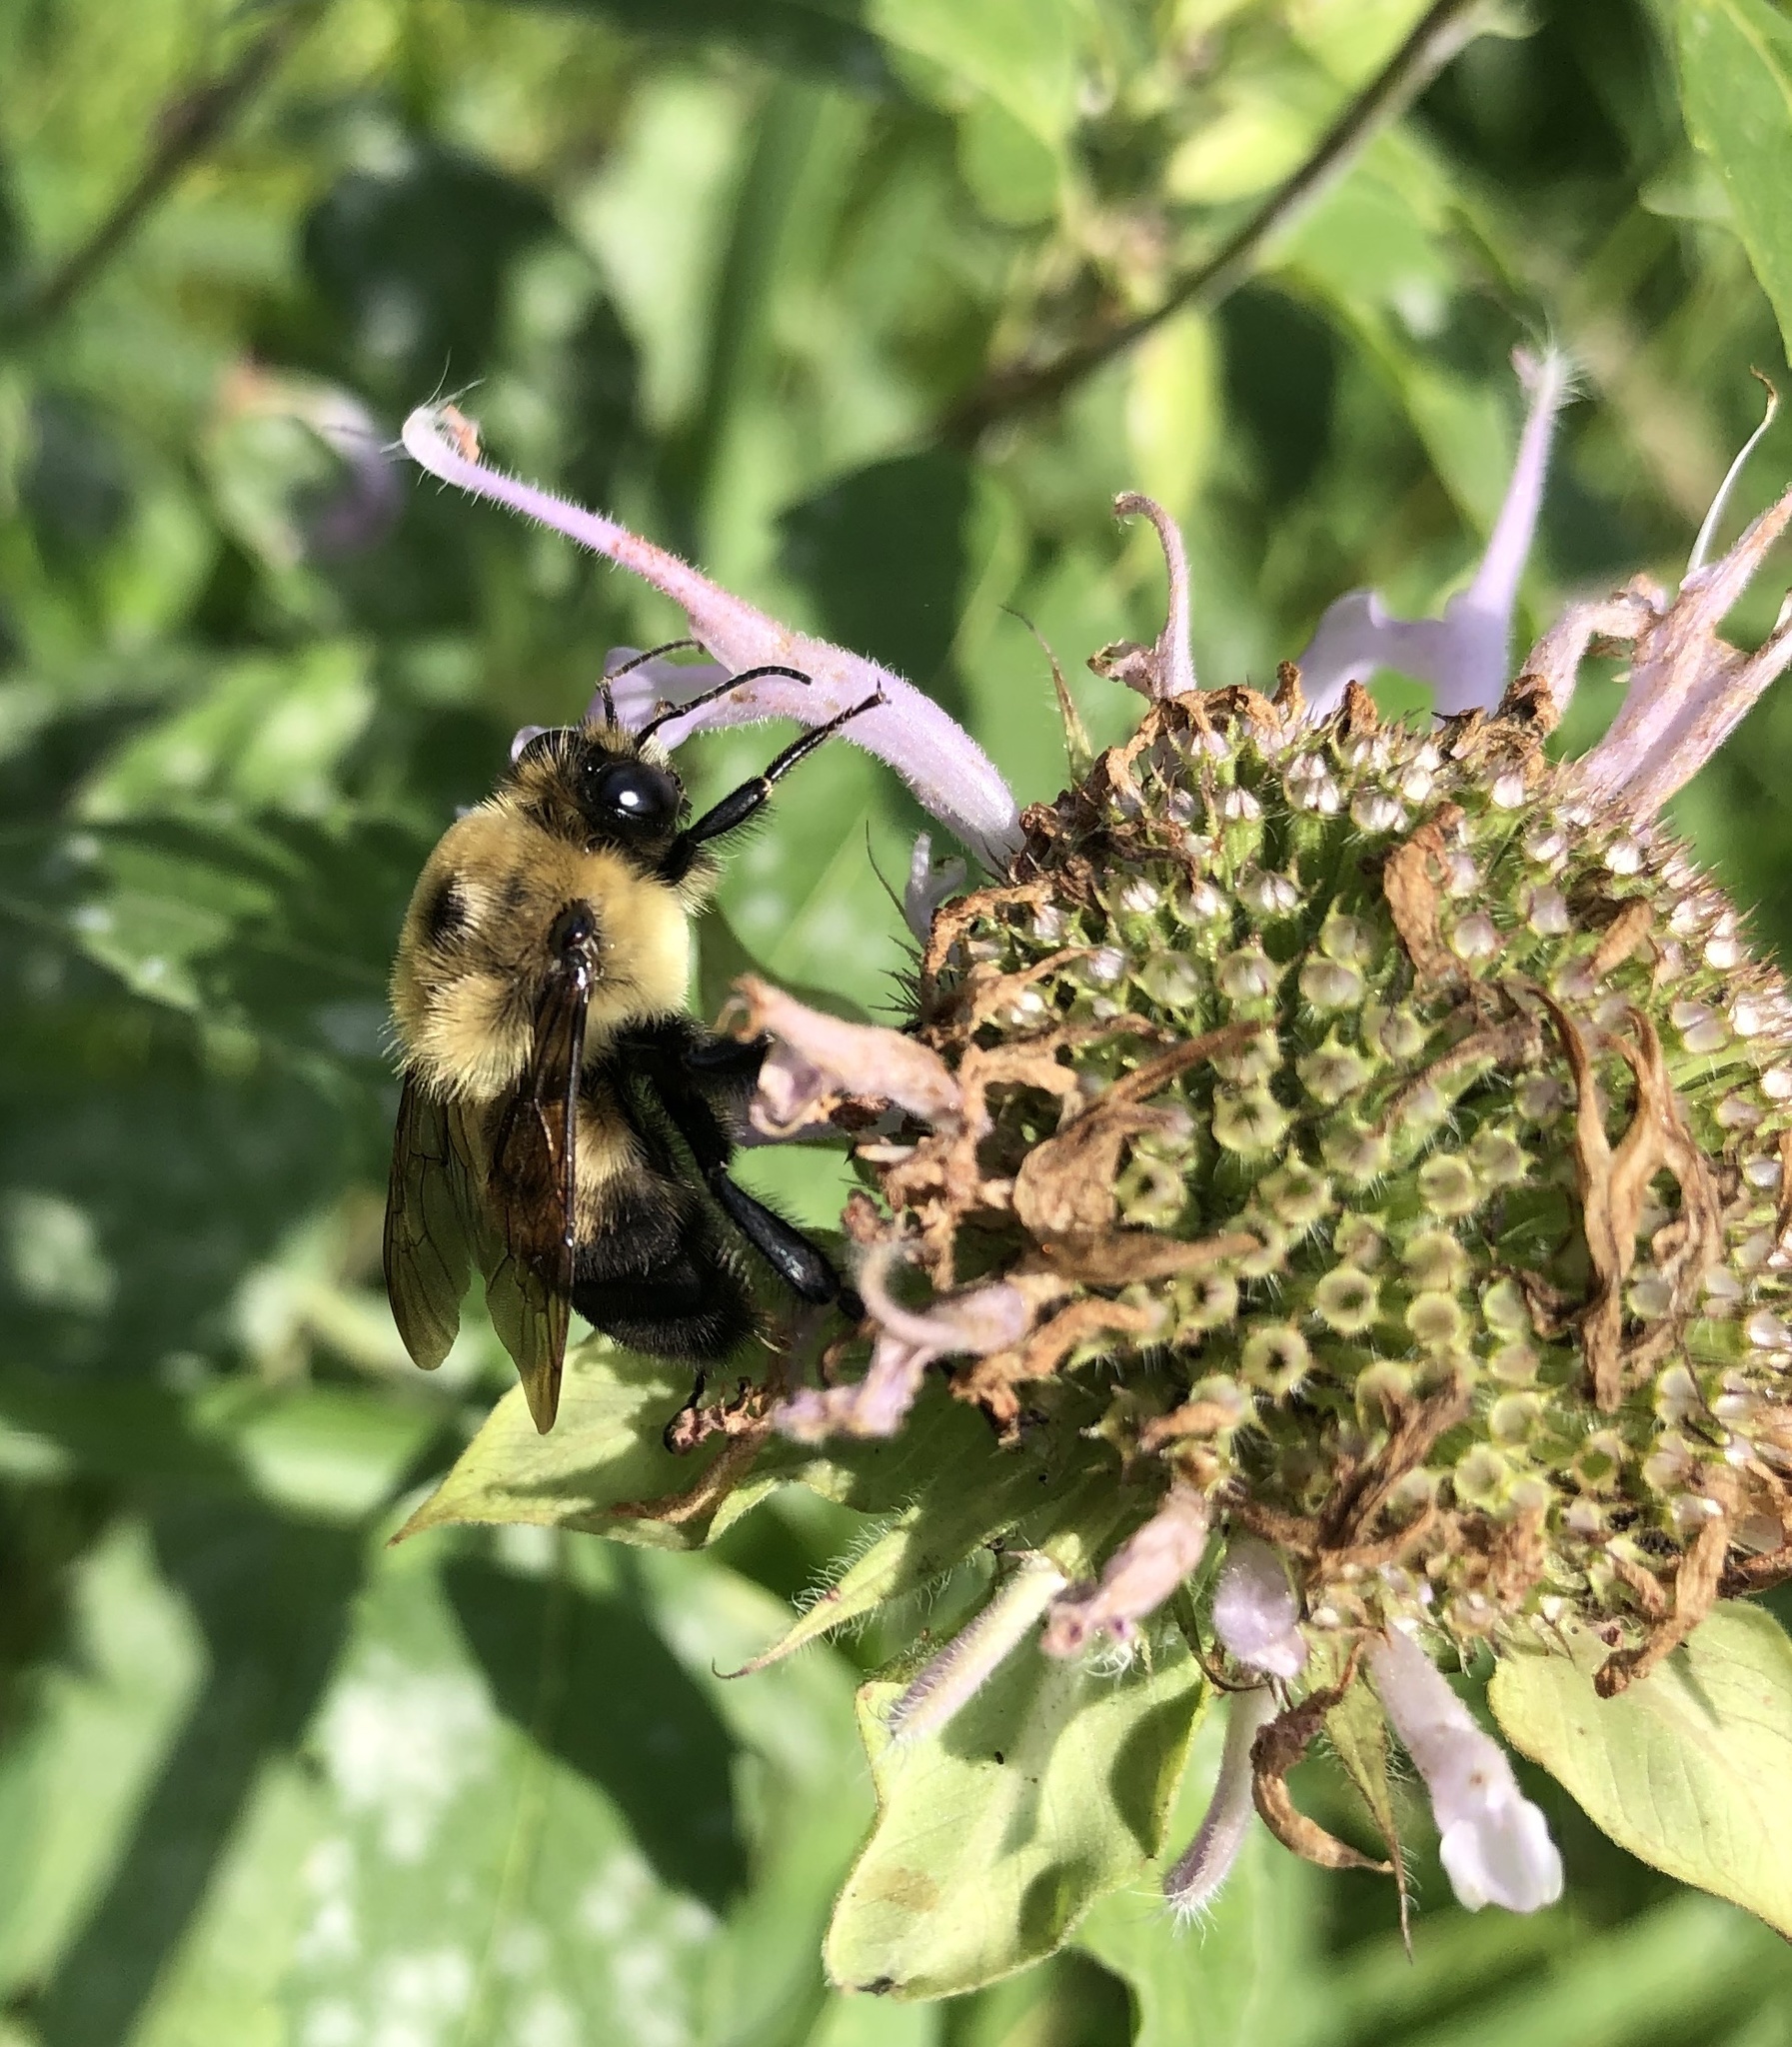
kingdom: Animalia
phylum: Arthropoda
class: Insecta
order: Hymenoptera
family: Apidae
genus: Bombus
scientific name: Bombus griseocollis
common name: Brown-belted bumble bee
